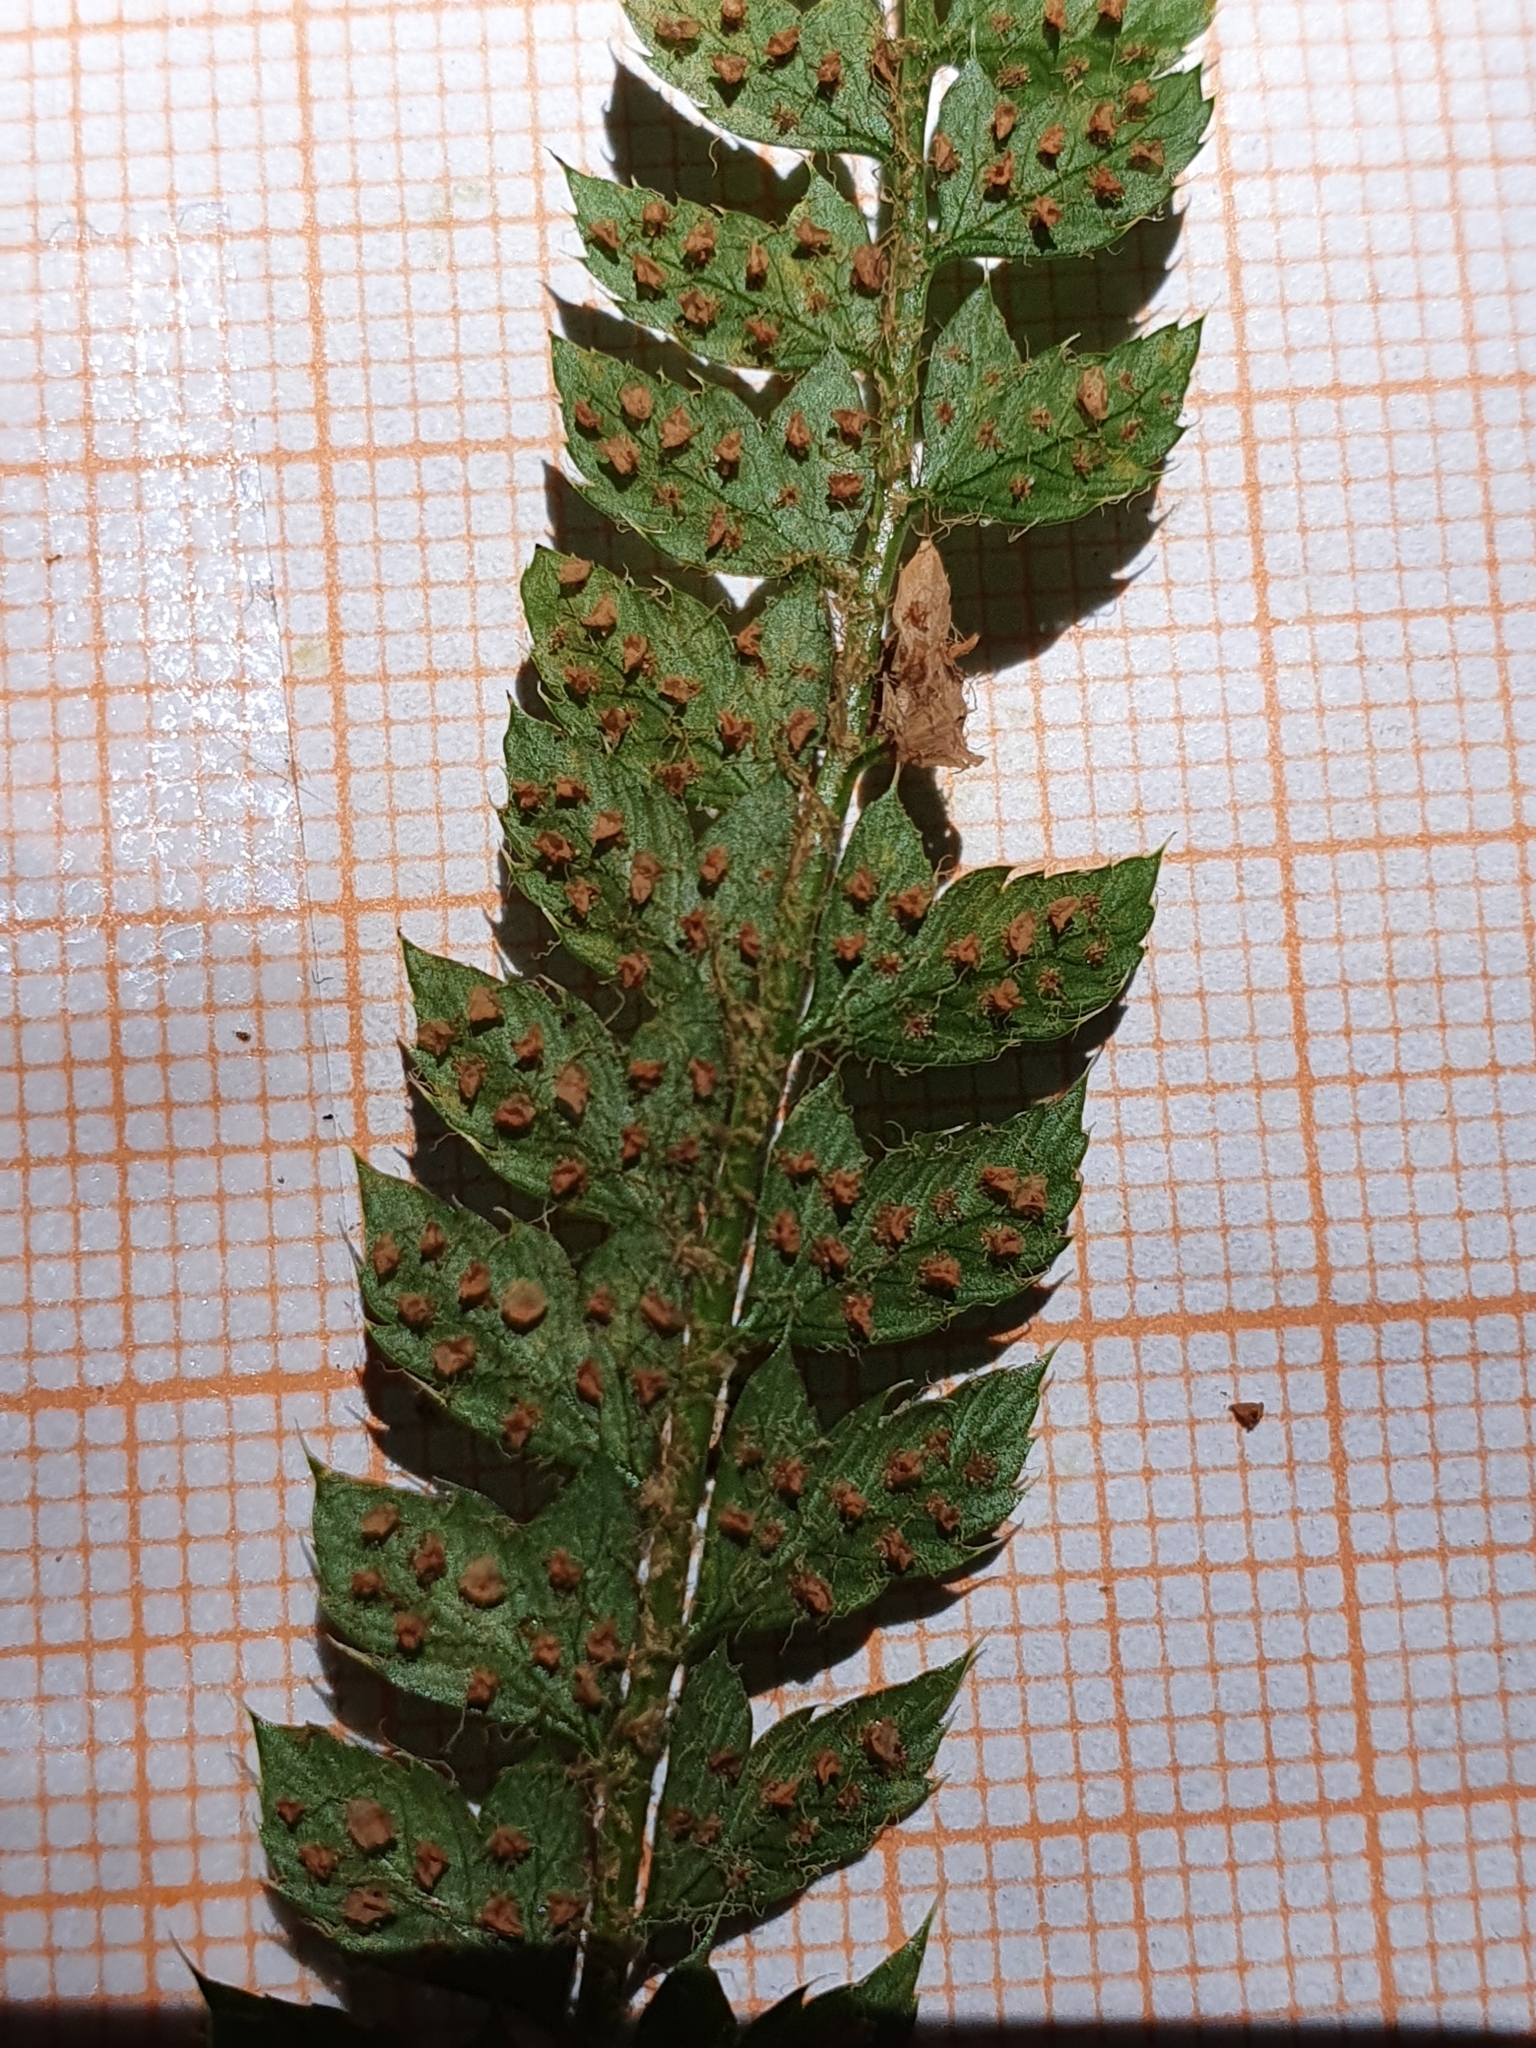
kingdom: Plantae
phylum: Tracheophyta
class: Polypodiopsida
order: Polypodiales
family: Dryopteridaceae
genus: Polystichum
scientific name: Polystichum setiferum
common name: Soft shield-fern
